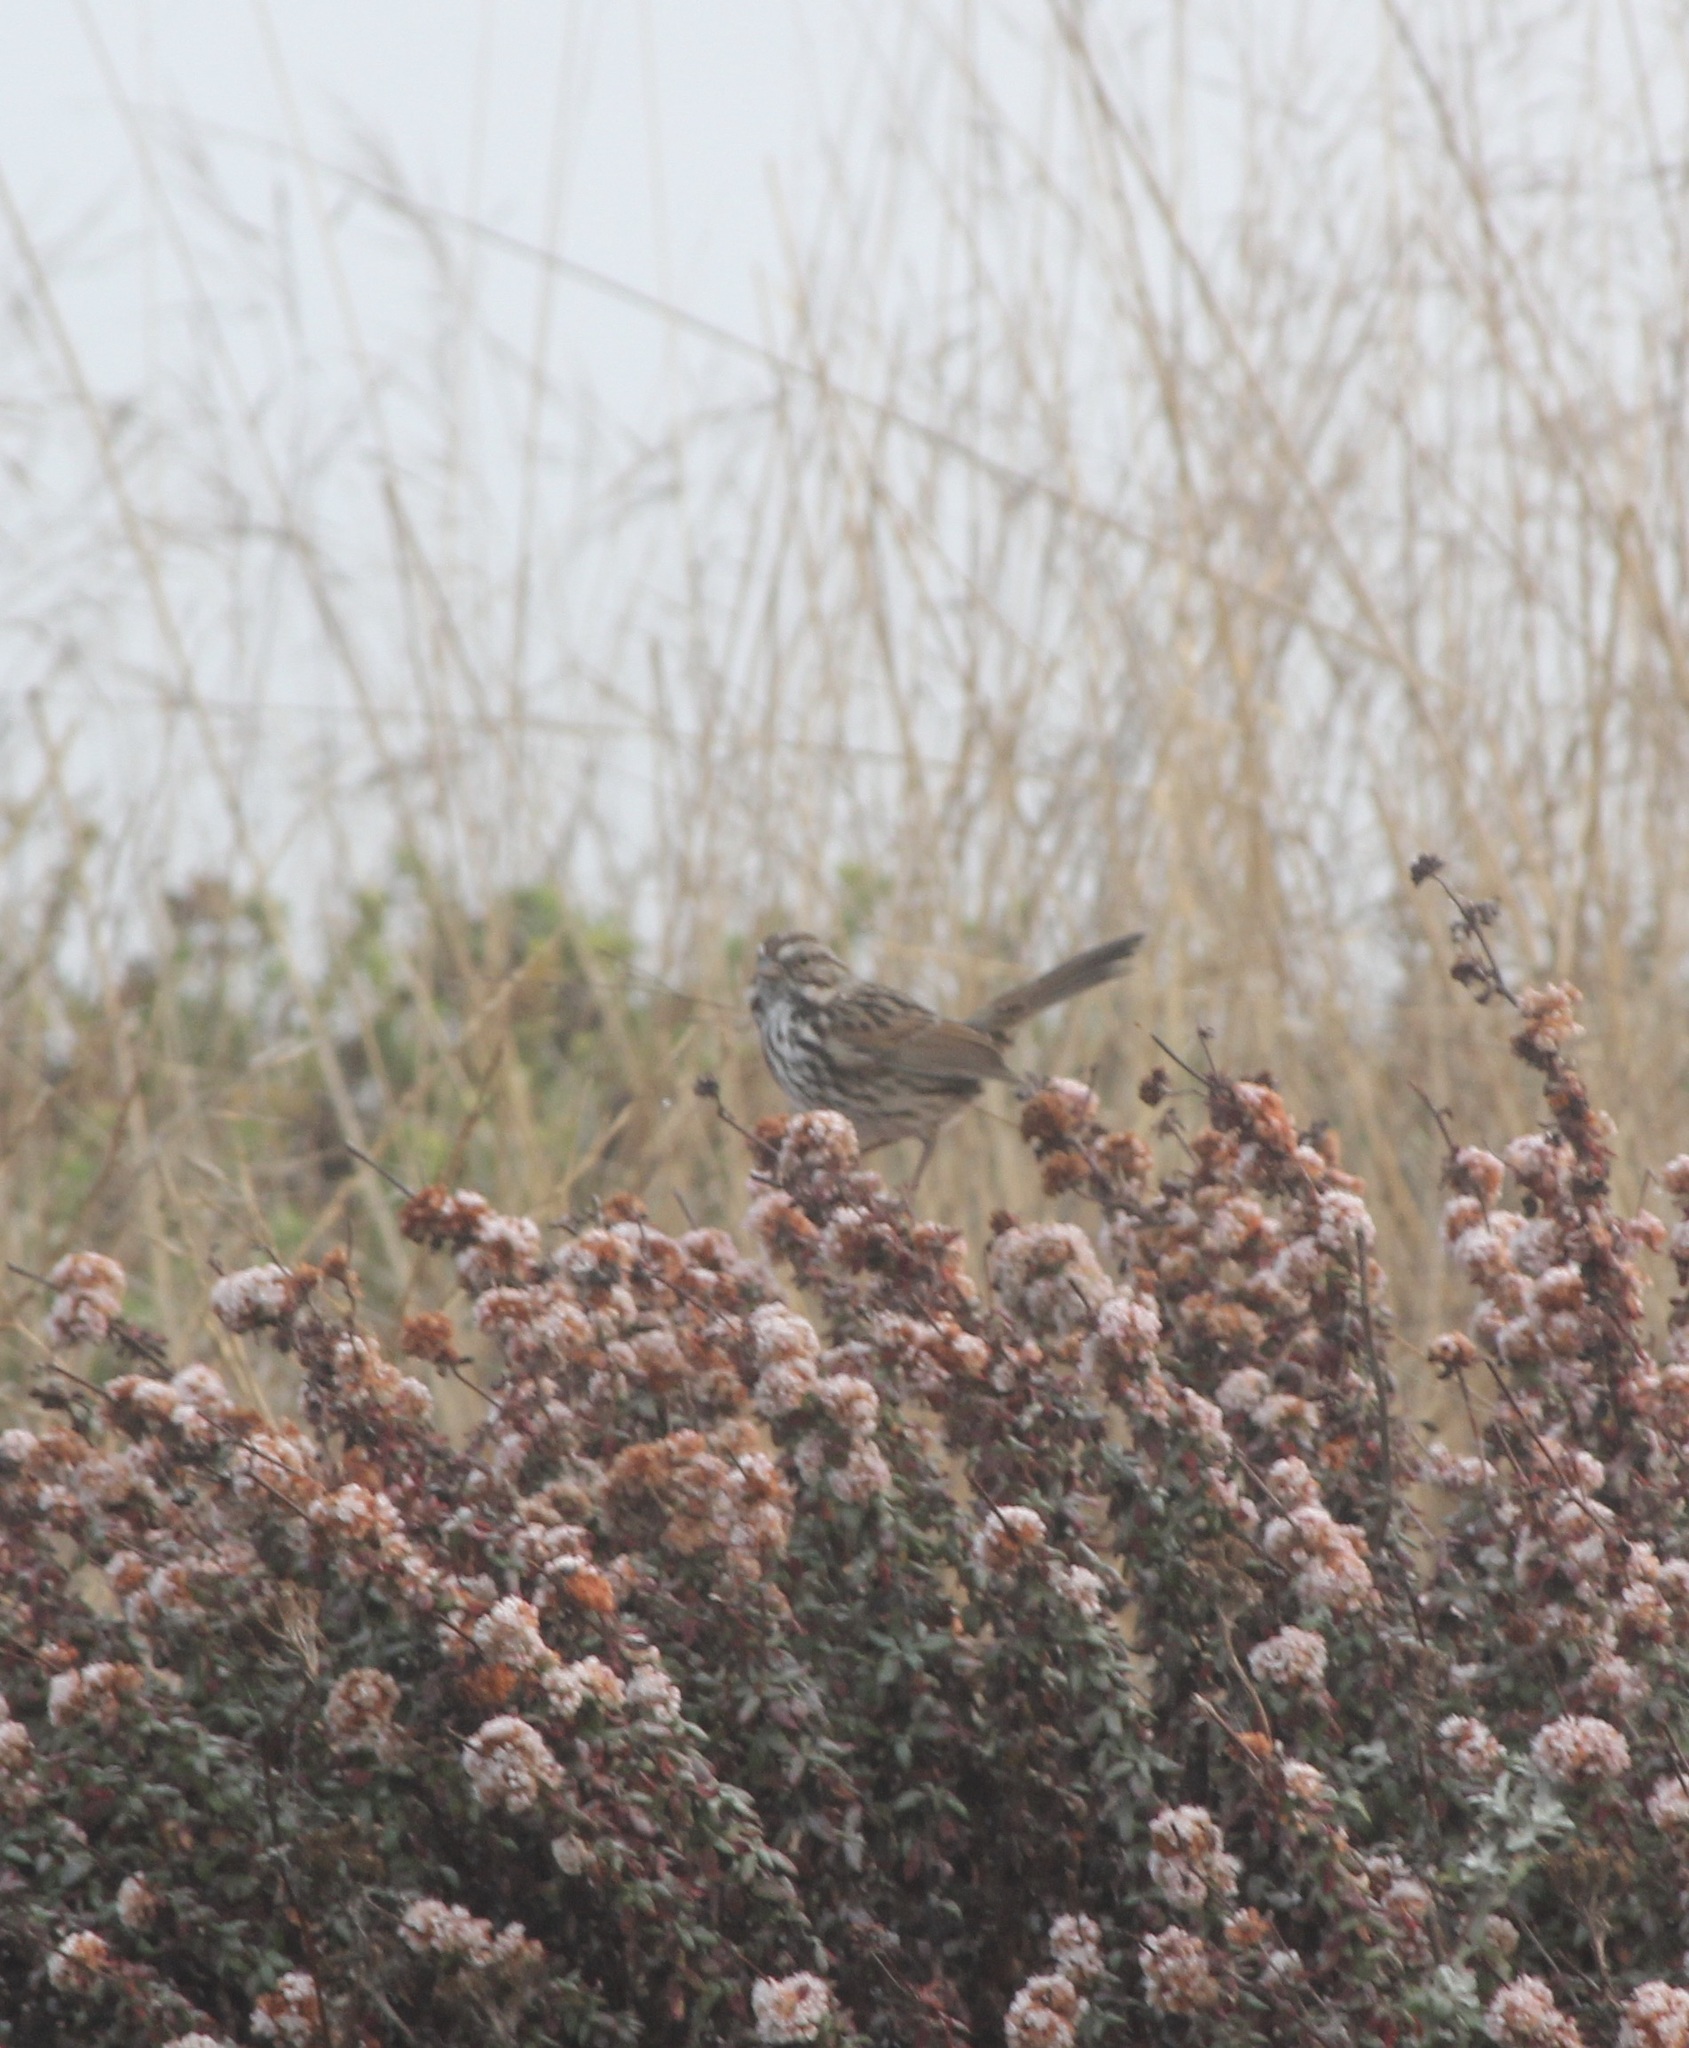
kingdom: Animalia
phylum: Chordata
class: Aves
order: Passeriformes
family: Passerellidae
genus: Melospiza
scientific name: Melospiza melodia
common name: Song sparrow
